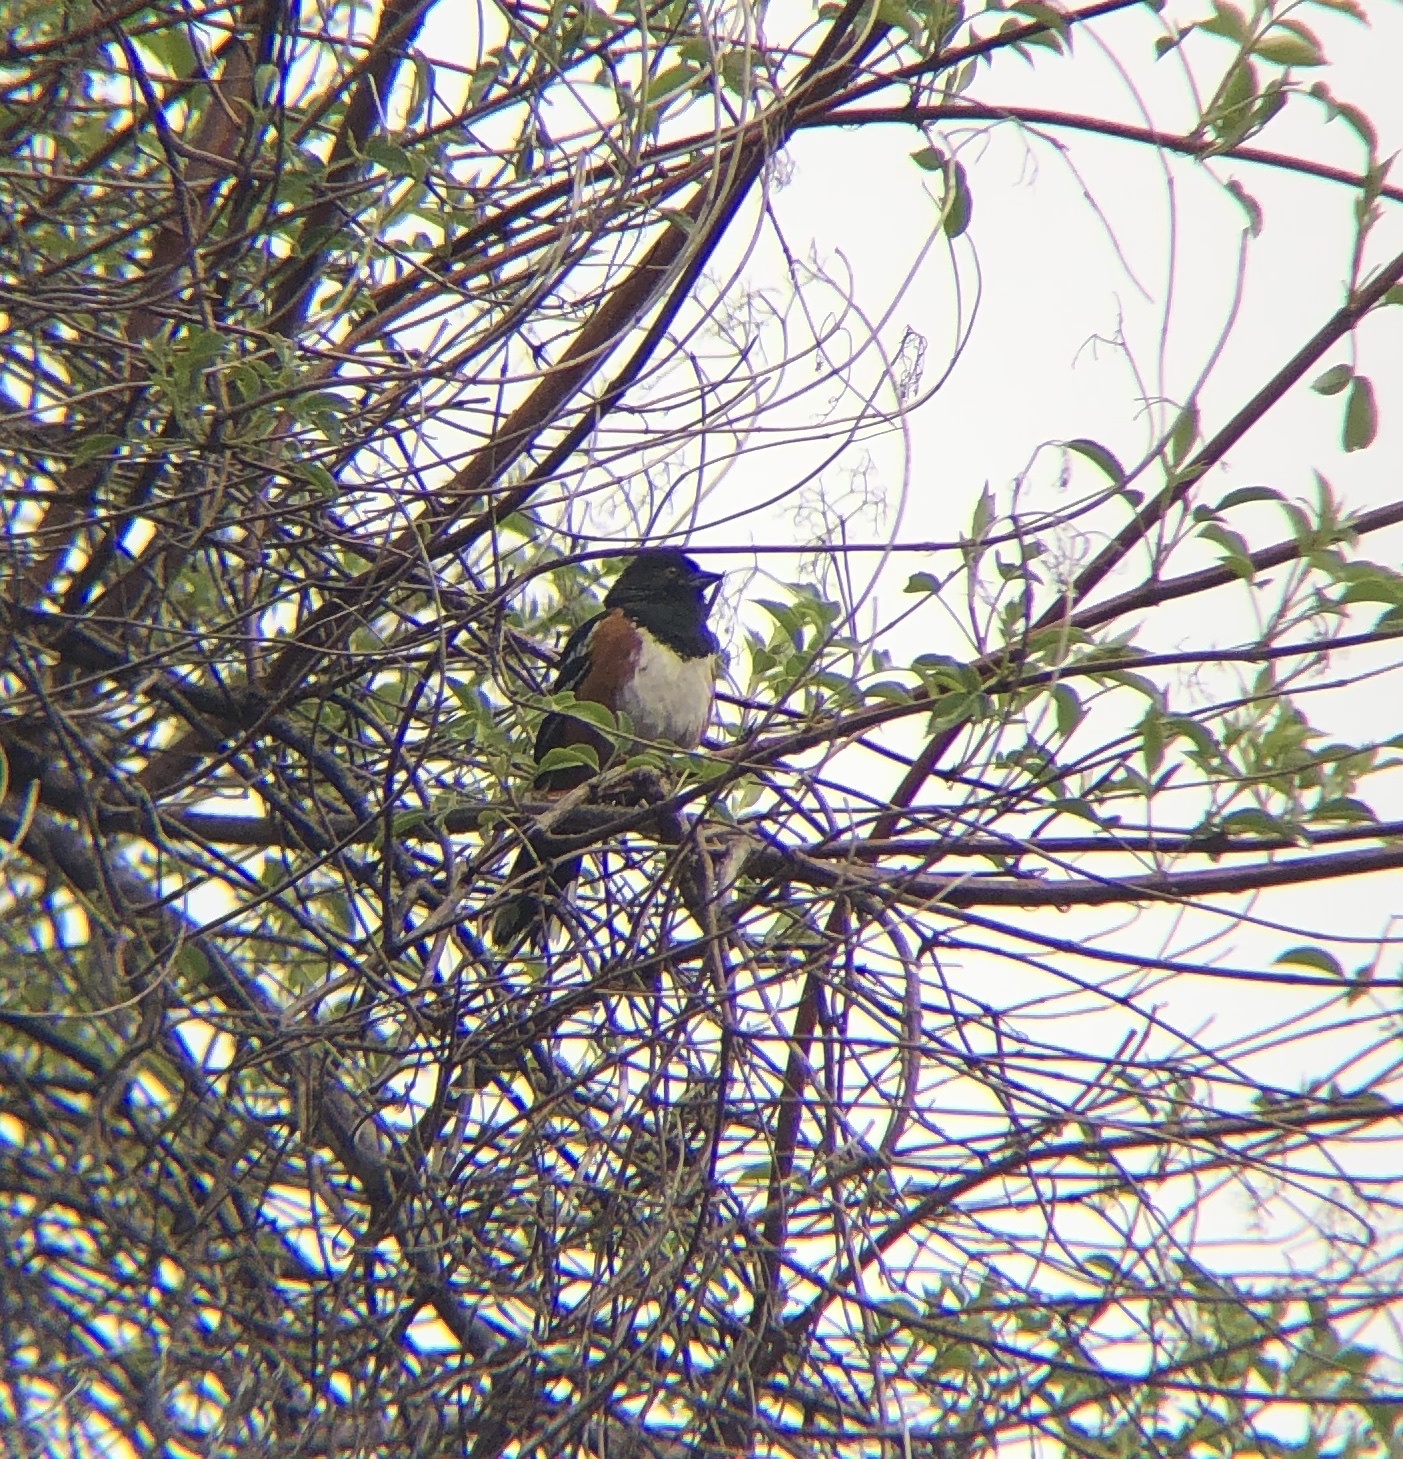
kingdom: Animalia
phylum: Chordata
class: Aves
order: Passeriformes
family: Passerellidae
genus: Pipilo
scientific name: Pipilo maculatus
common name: Spotted towhee
